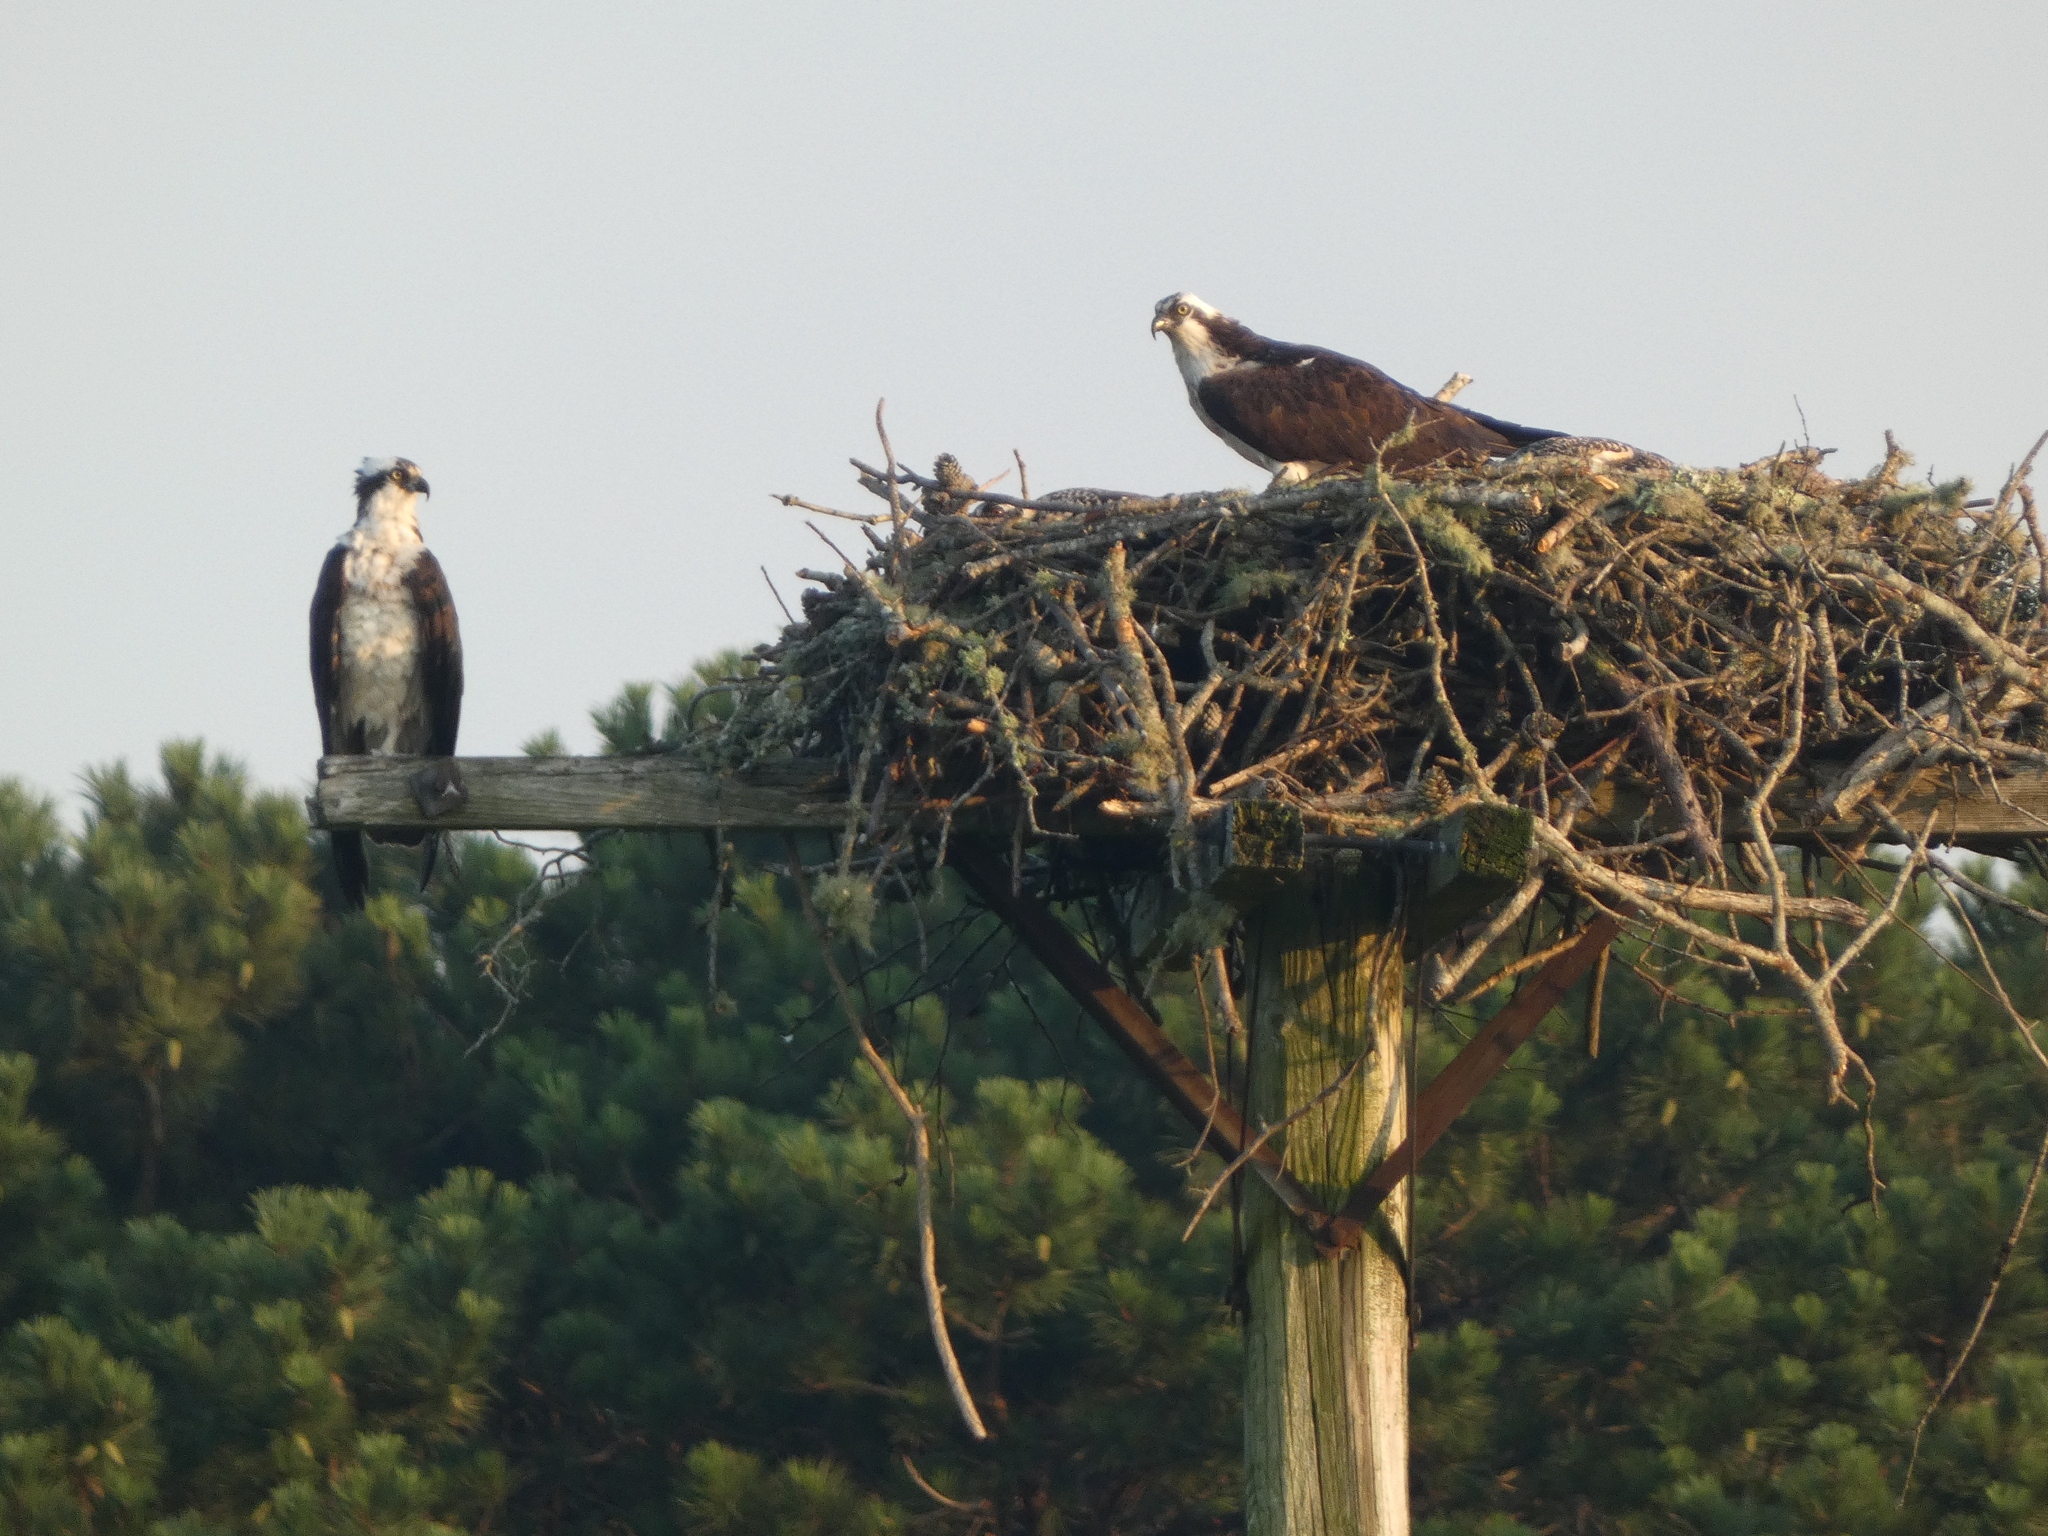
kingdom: Animalia
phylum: Chordata
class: Aves
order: Accipitriformes
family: Pandionidae
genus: Pandion
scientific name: Pandion haliaetus
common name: Osprey
